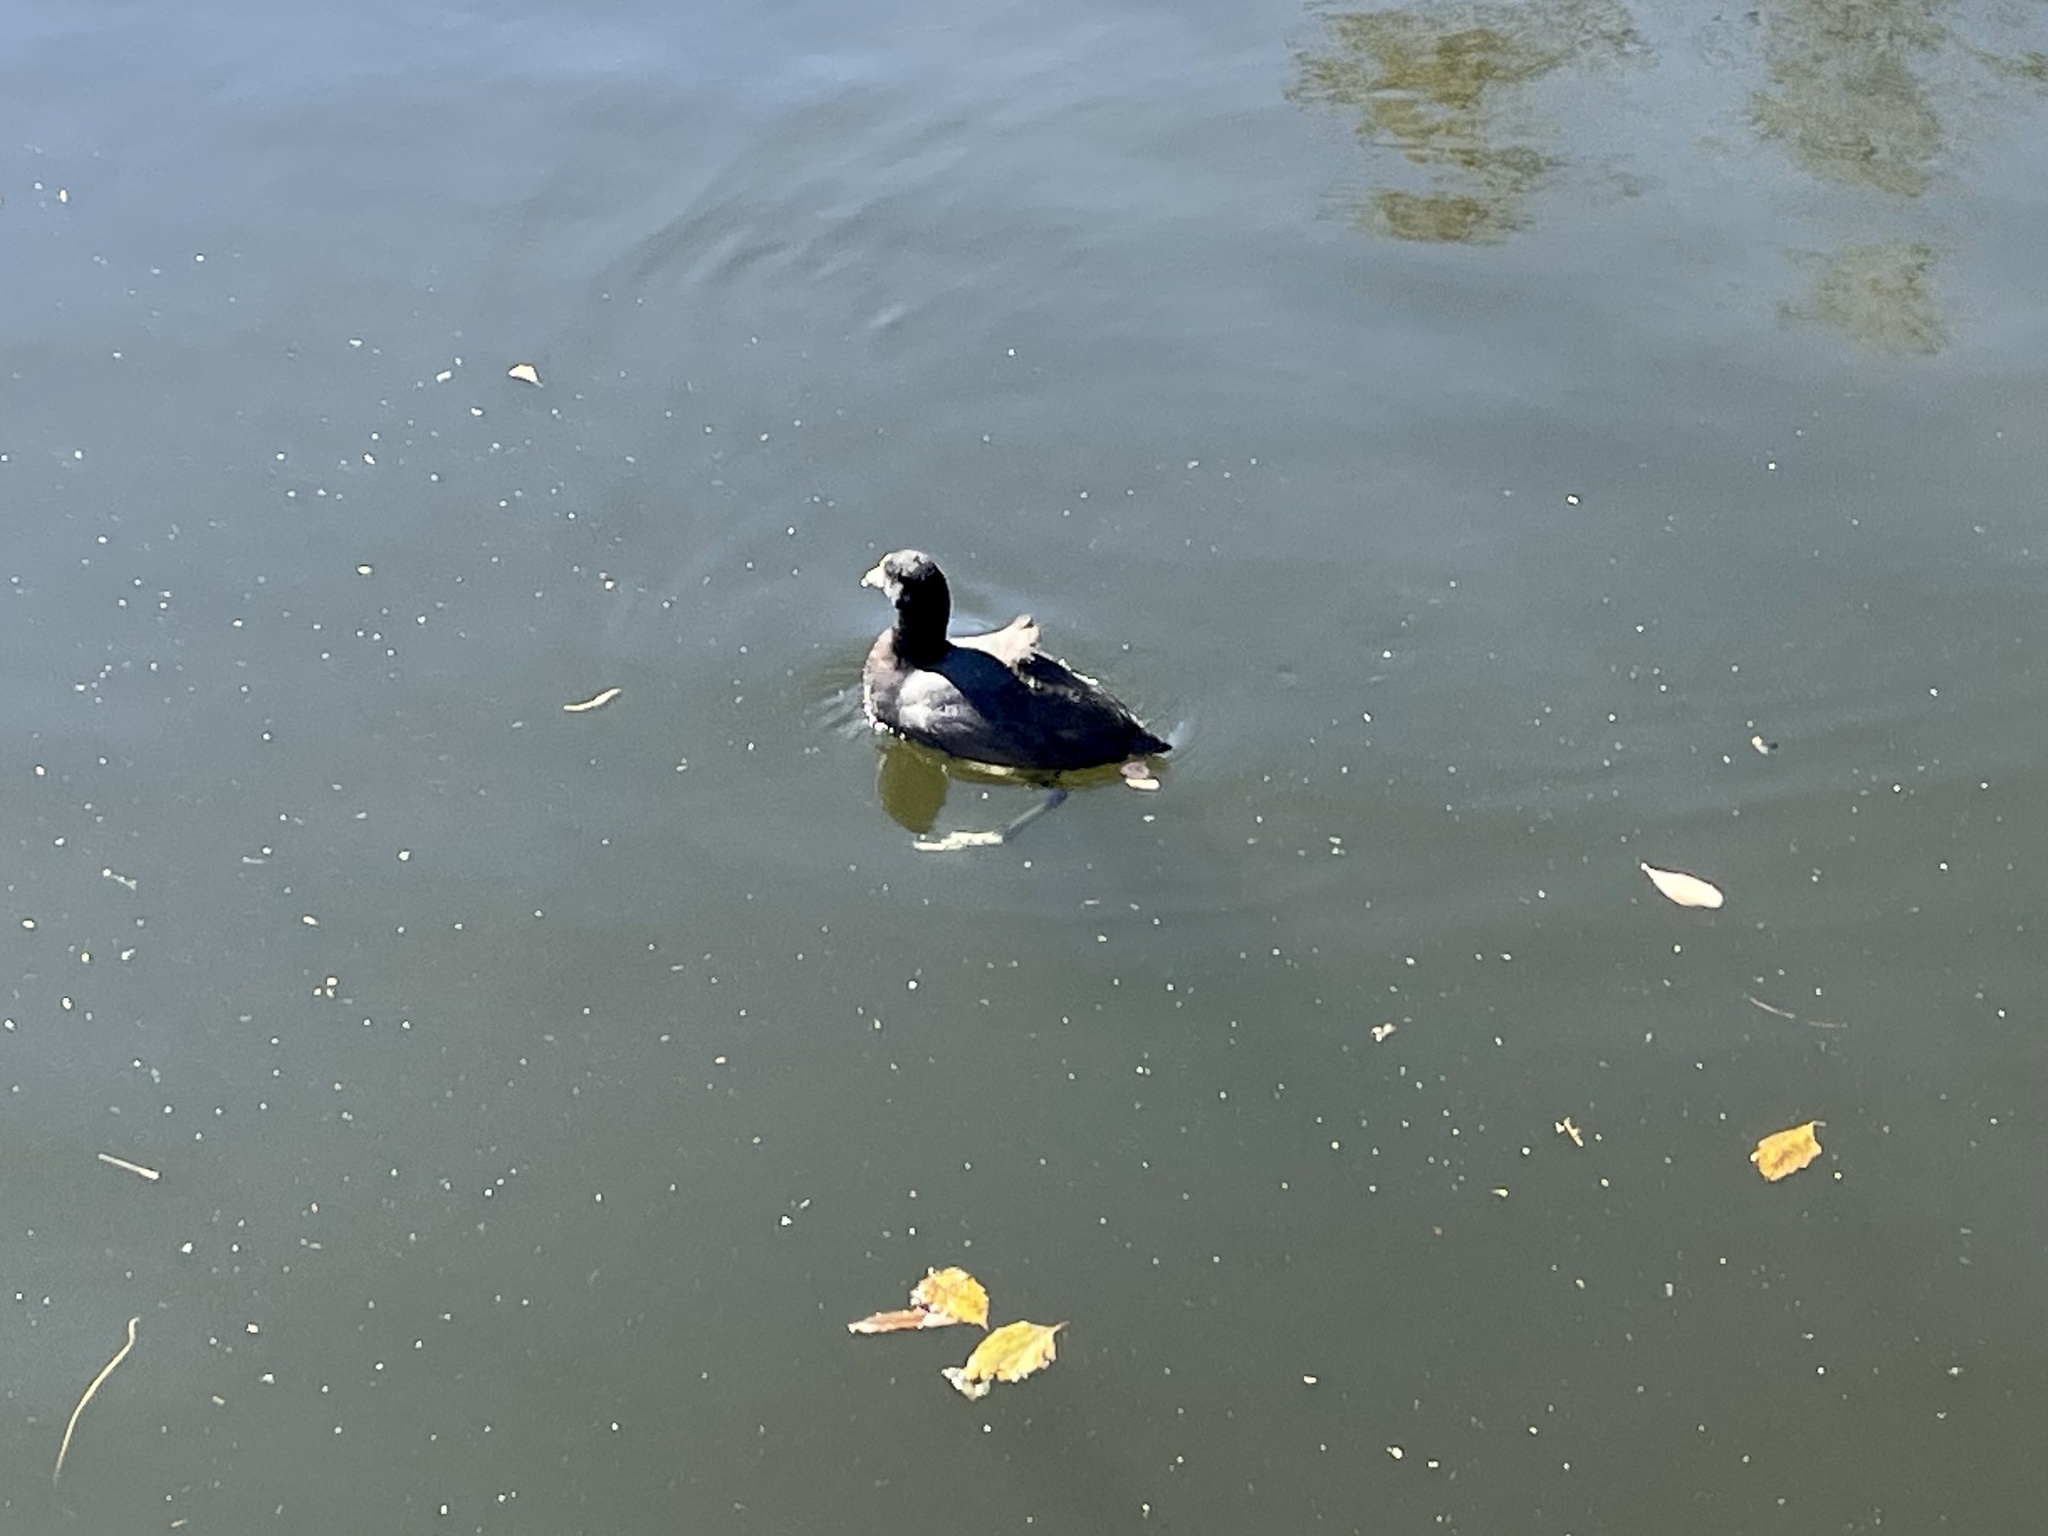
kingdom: Animalia
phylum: Chordata
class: Aves
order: Gruiformes
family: Rallidae
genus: Fulica
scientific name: Fulica americana
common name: American coot
